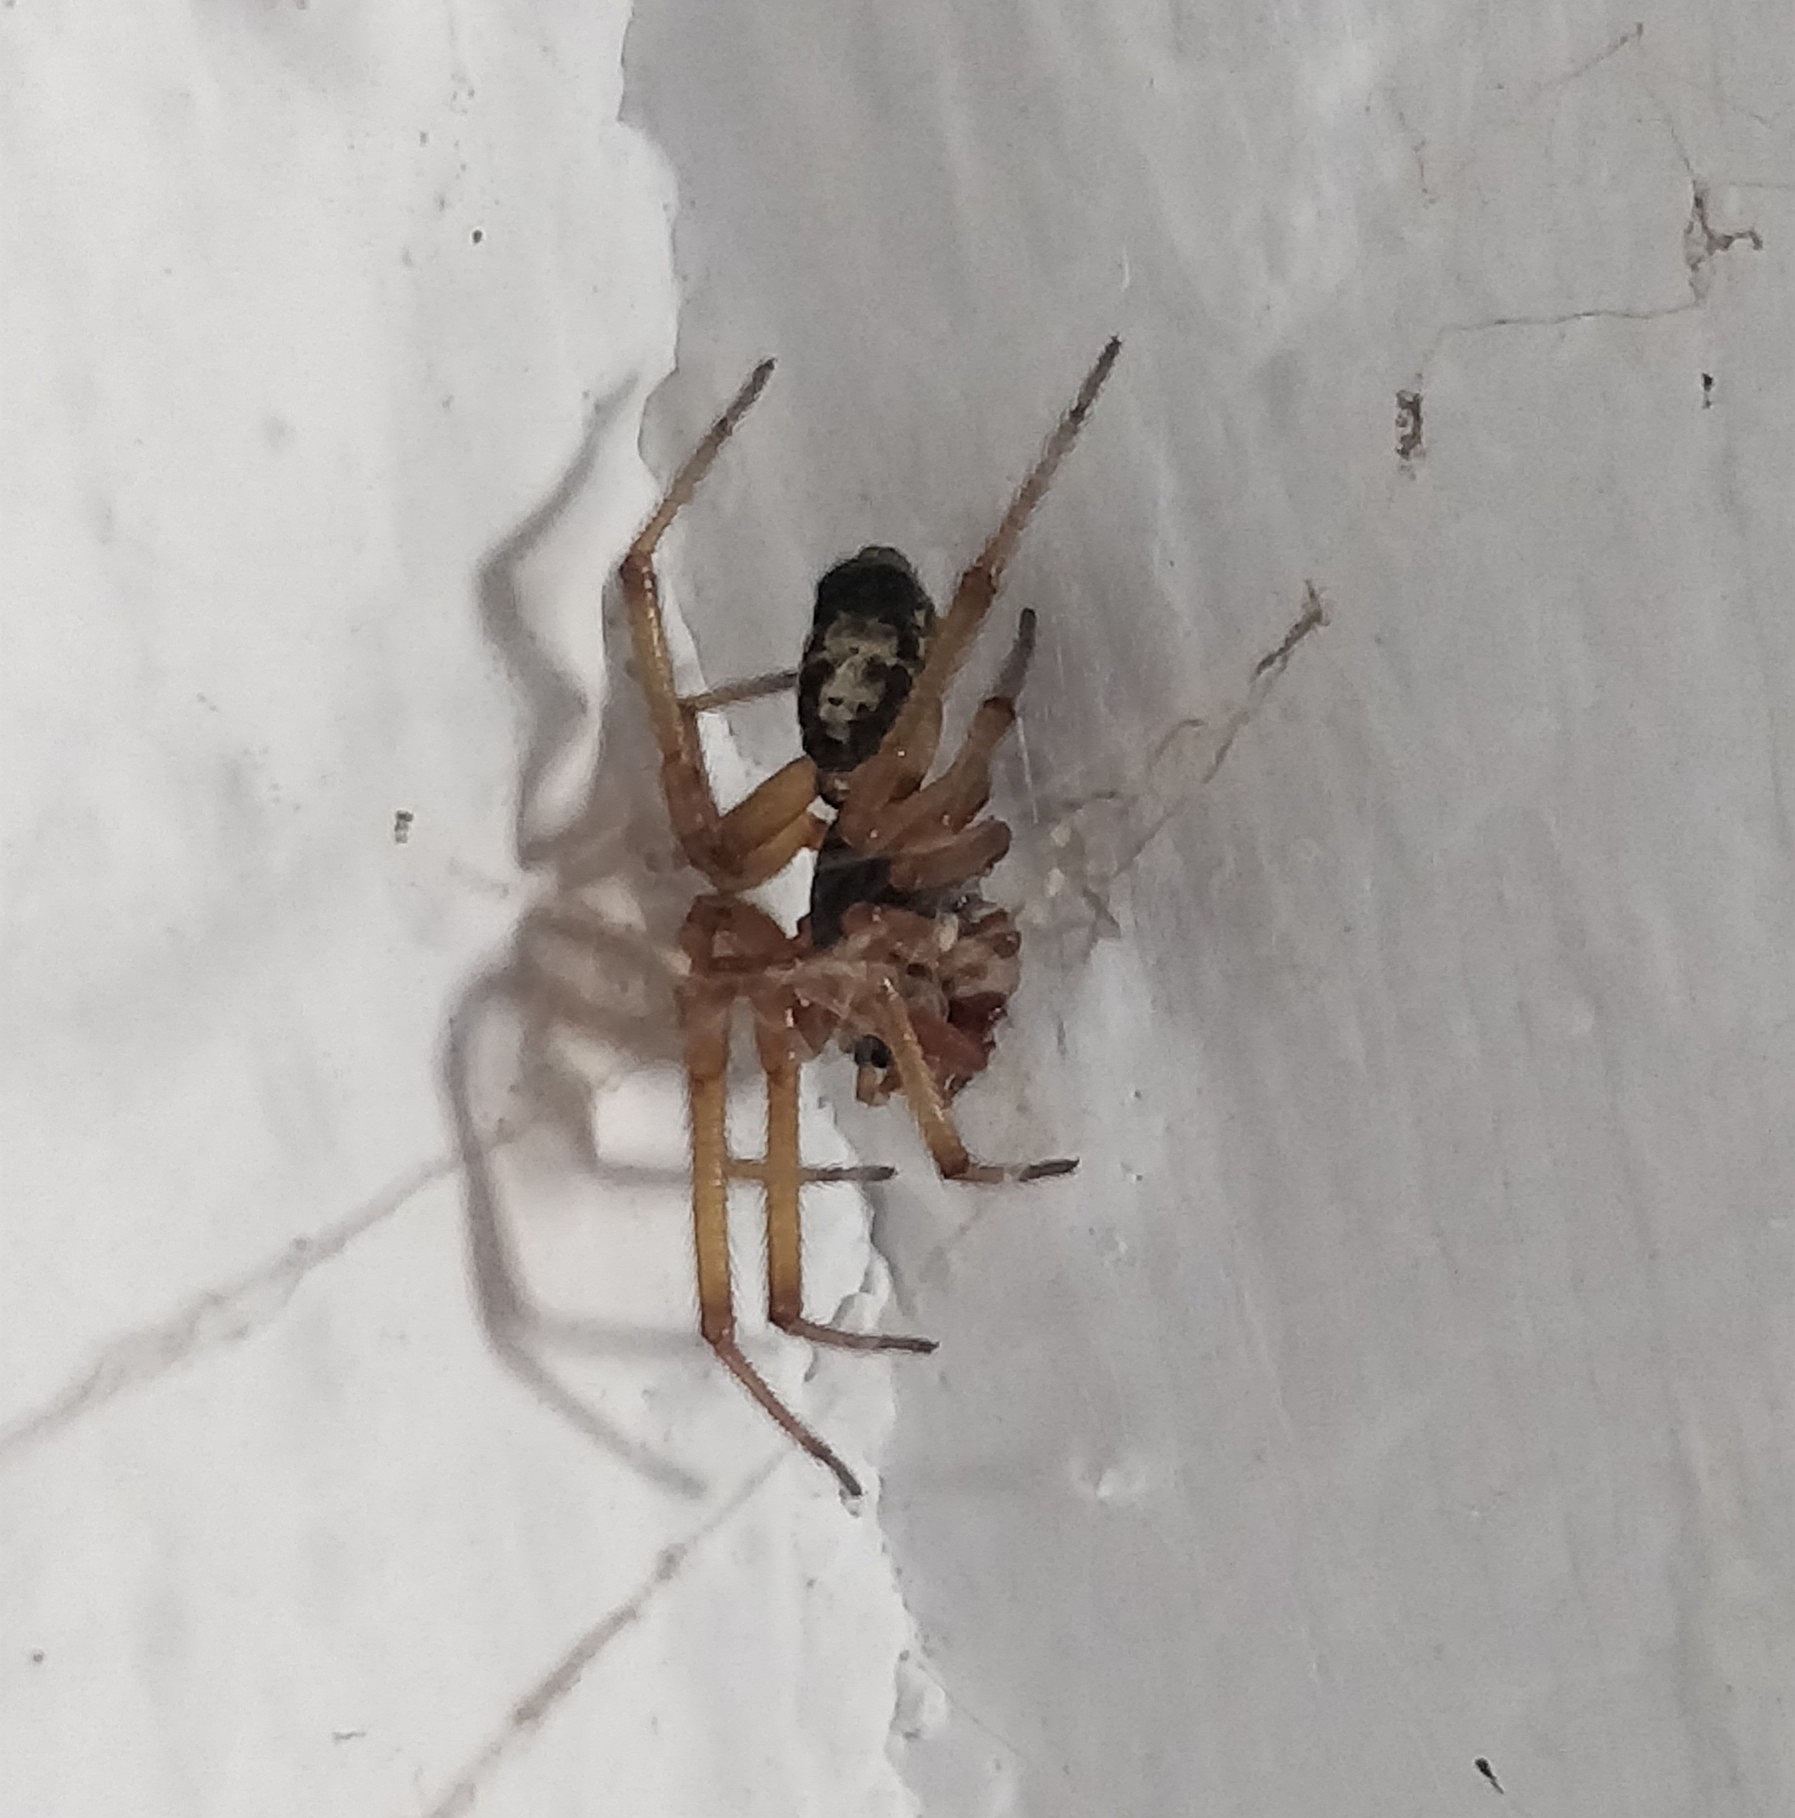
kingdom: Animalia
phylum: Arthropoda
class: Arachnida
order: Araneae
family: Theridiidae
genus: Steatoda
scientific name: Steatoda nobilis
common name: Cobweb weaver
